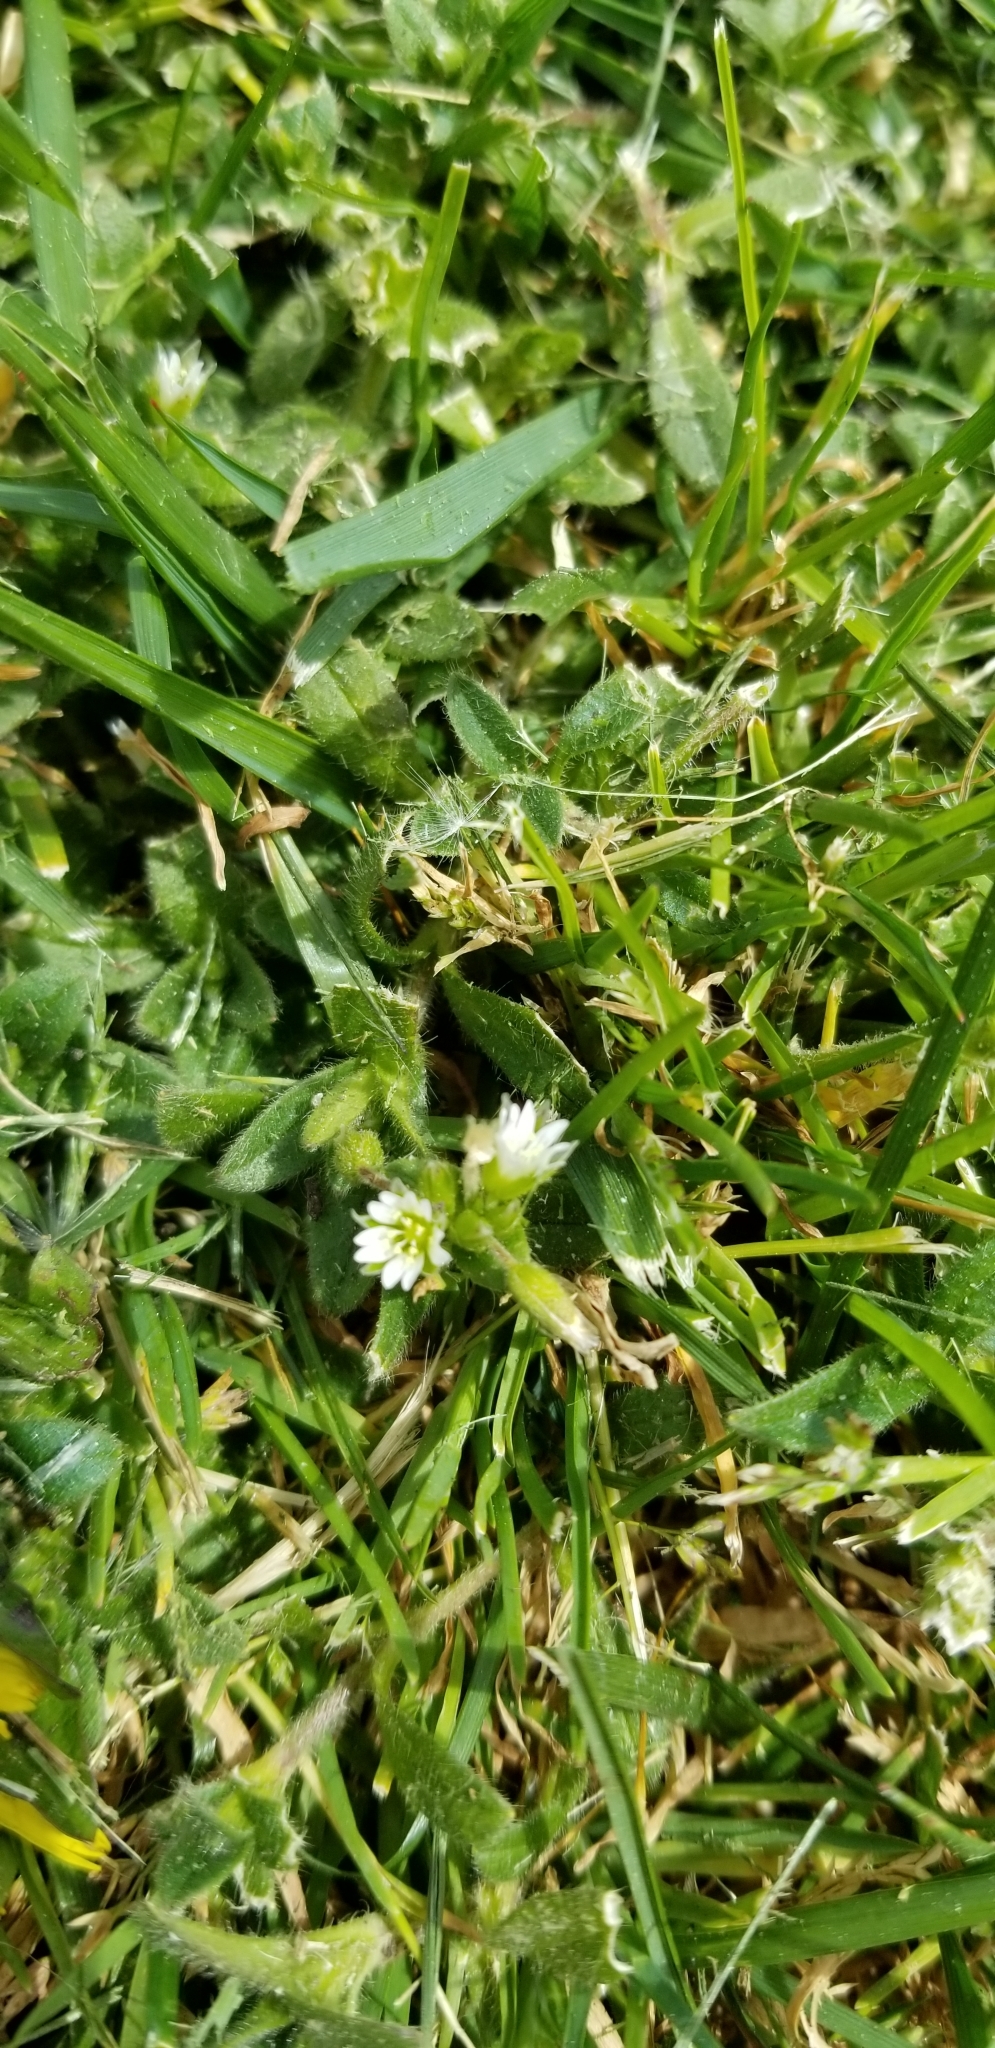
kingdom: Plantae
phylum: Tracheophyta
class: Magnoliopsida
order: Caryophyllales
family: Caryophyllaceae
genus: Cerastium
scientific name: Cerastium glomeratum
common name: Sticky chickweed
